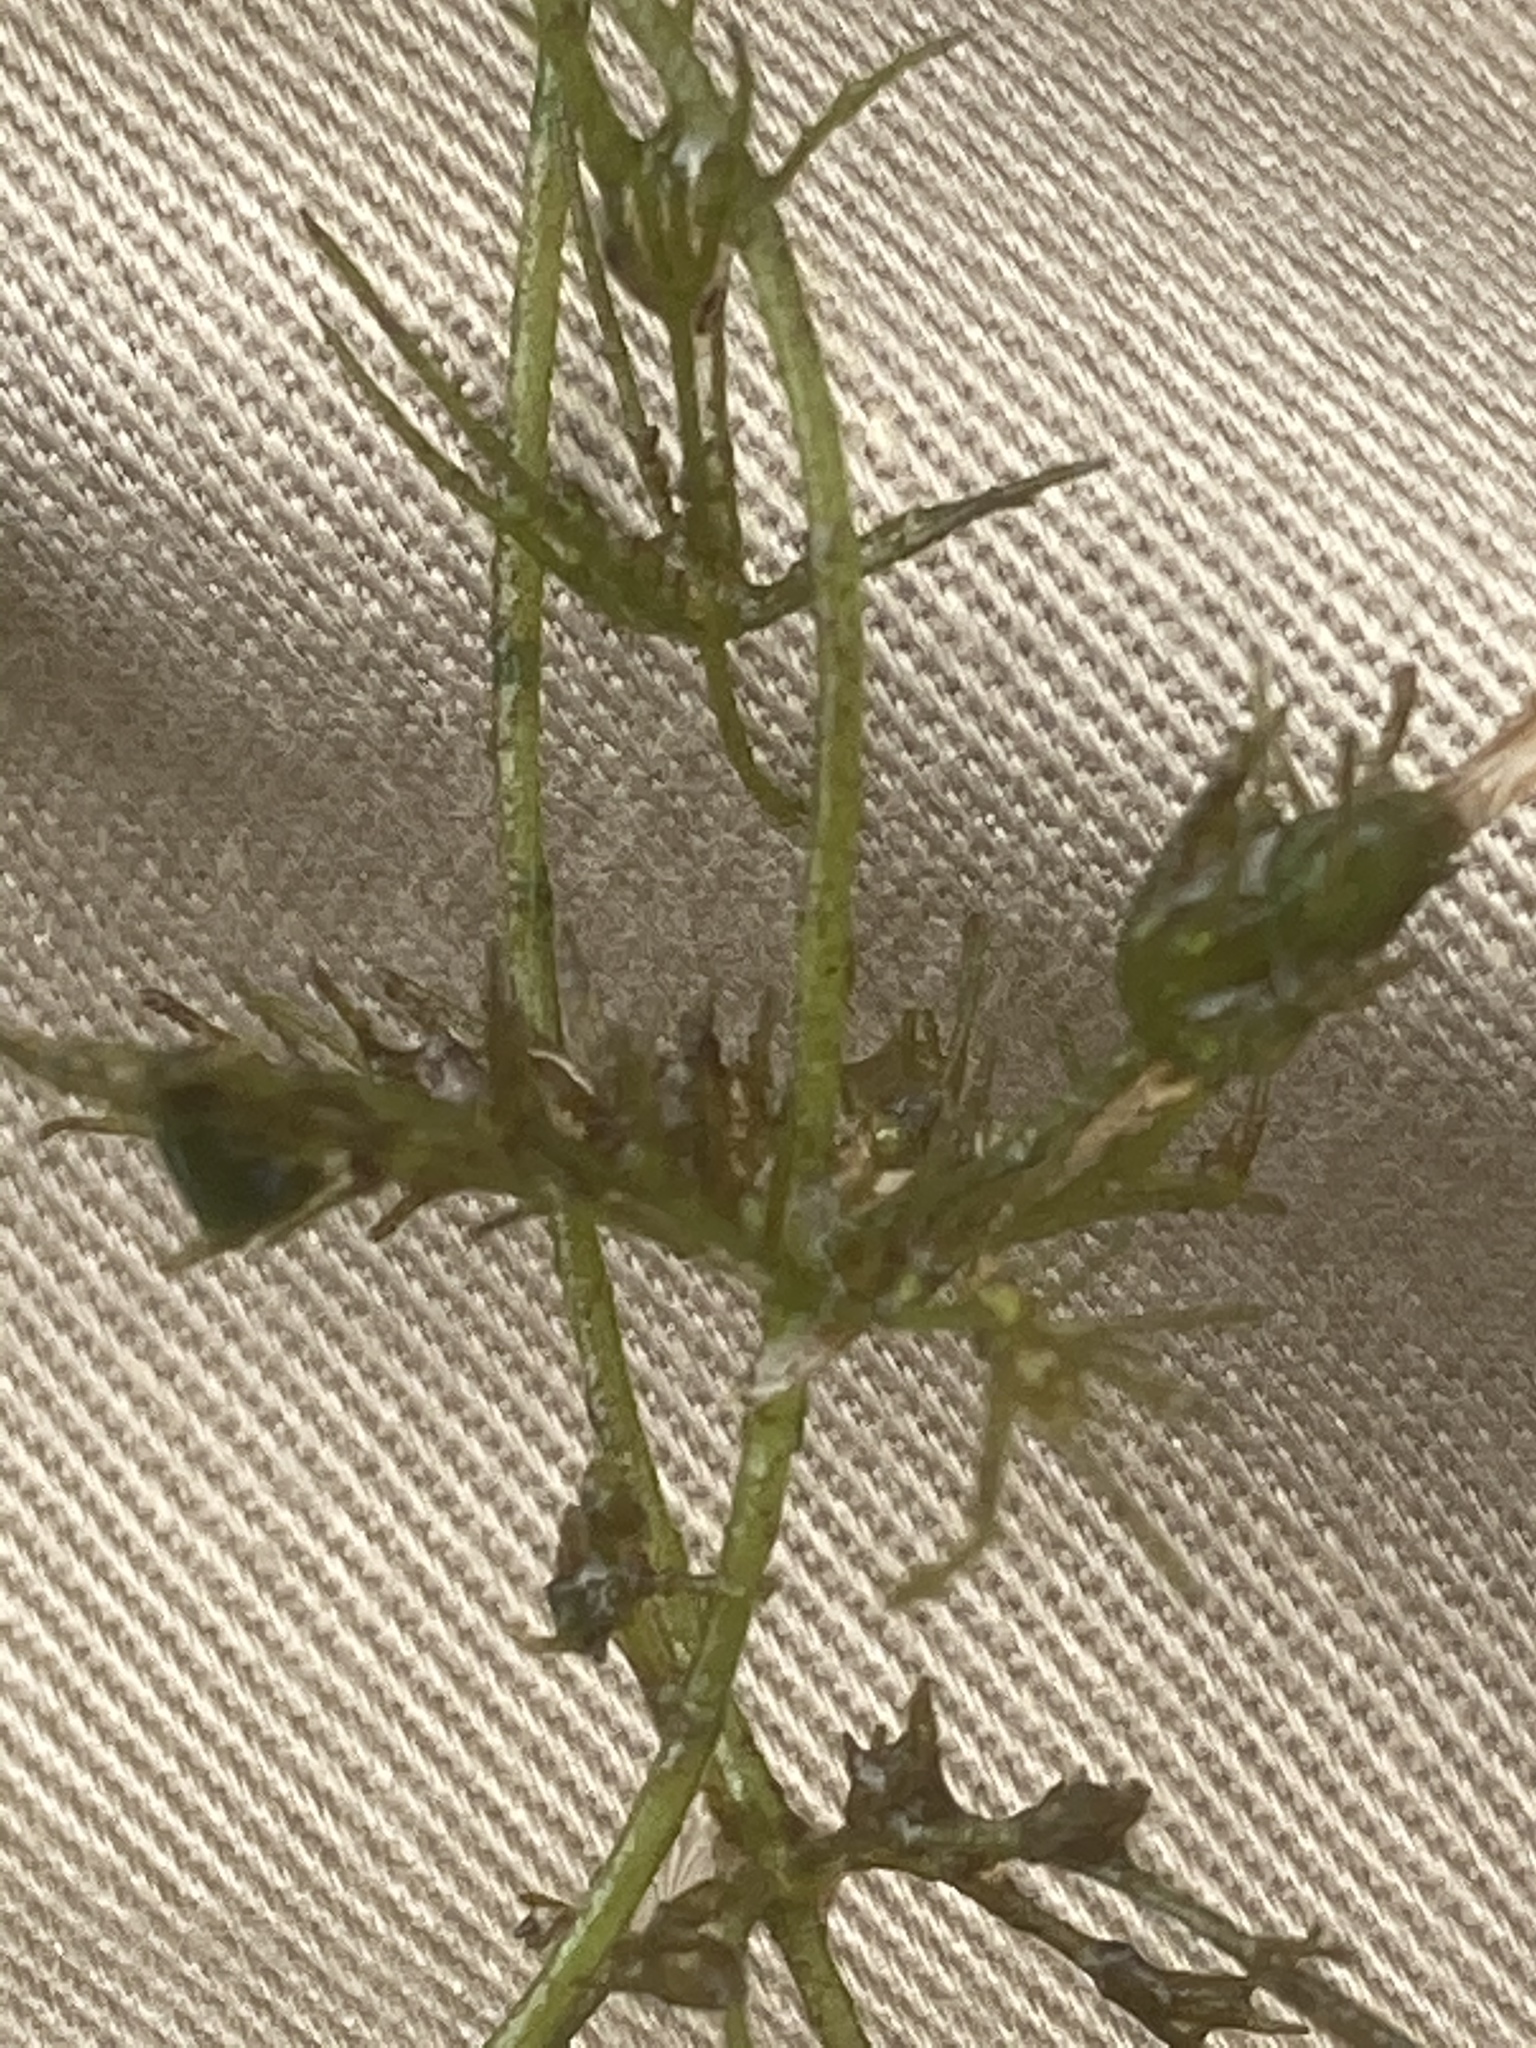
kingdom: Plantae
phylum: Charophyta
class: Charophyceae
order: Charales
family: Characeae
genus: Chara
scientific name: Chara vulgaris
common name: Common stonewort
